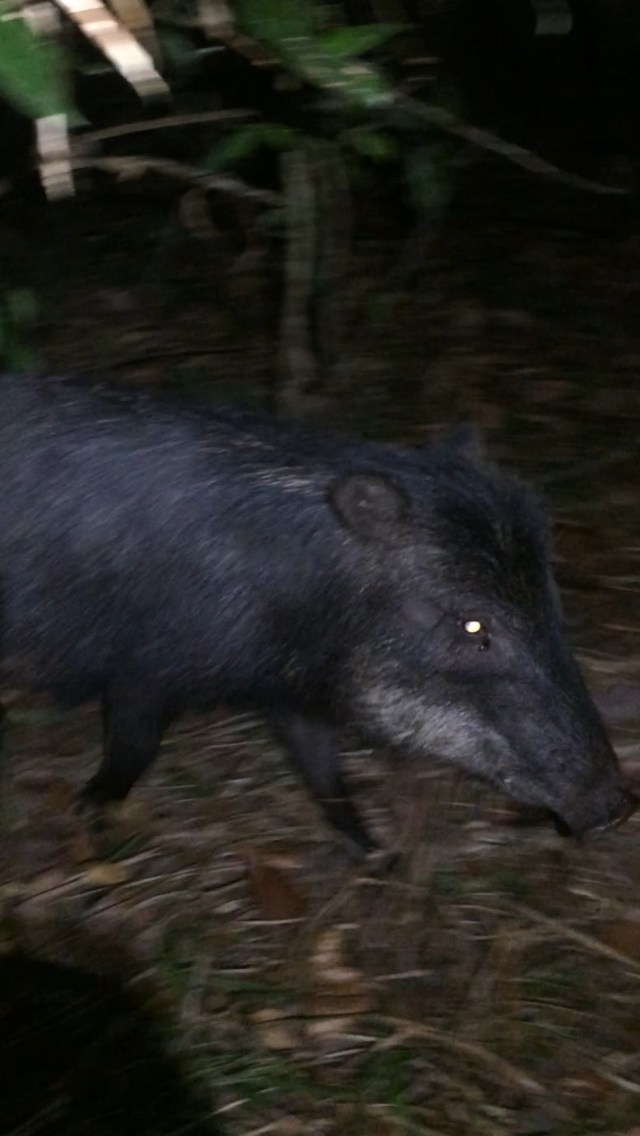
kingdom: Animalia
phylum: Chordata
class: Mammalia
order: Artiodactyla
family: Tayassuidae
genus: Tayassu
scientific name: Tayassu pecari
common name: White-lipped peccary
